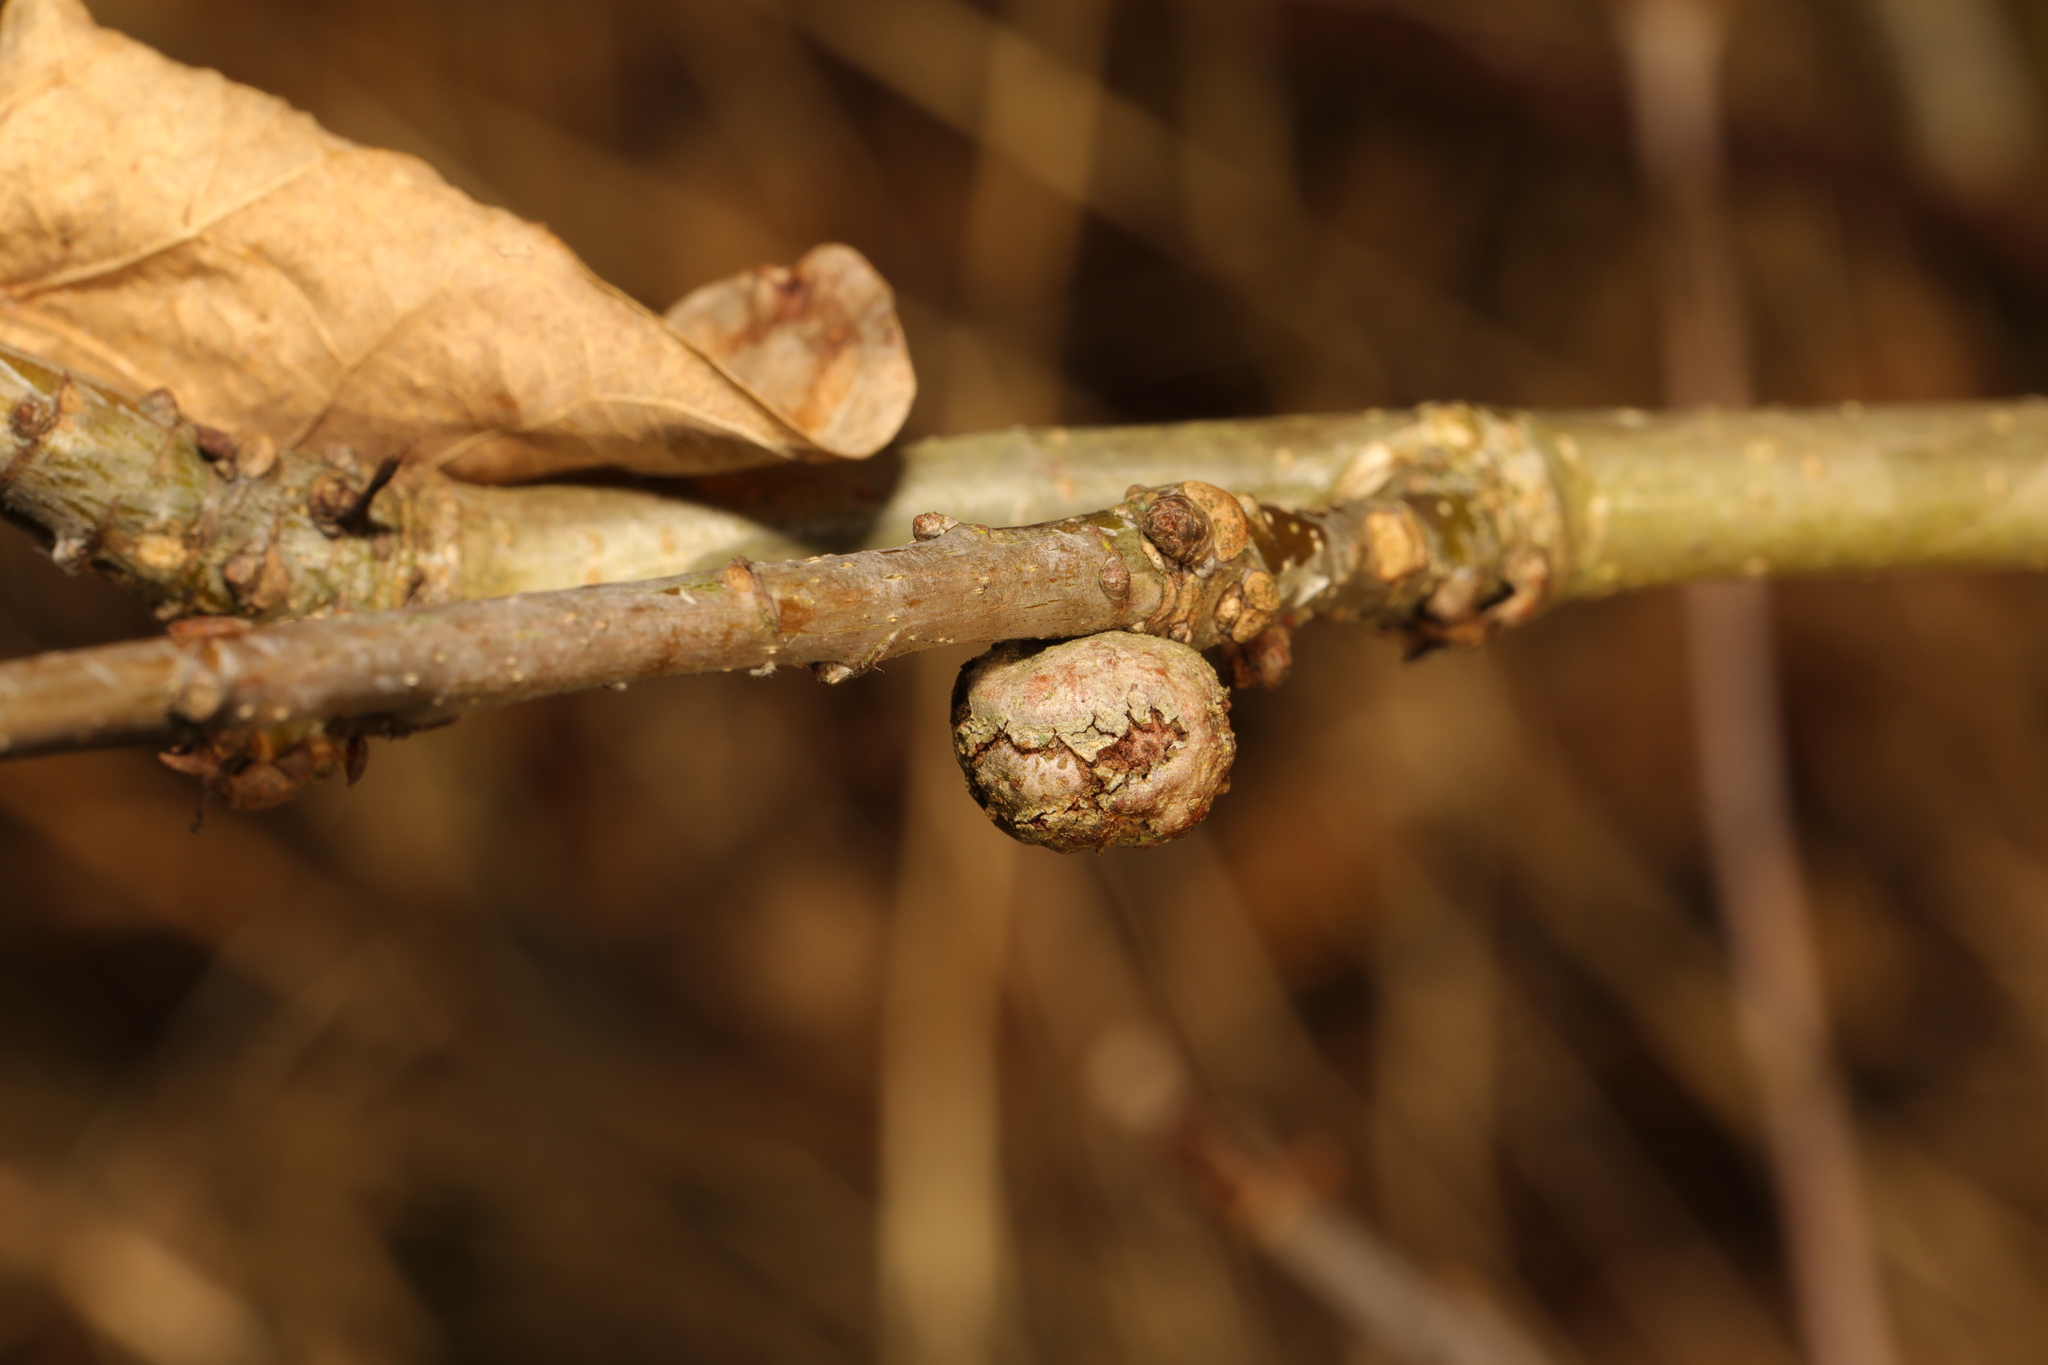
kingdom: Animalia
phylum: Arthropoda
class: Insecta
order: Hymenoptera
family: Cynipidae
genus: Andricus
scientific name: Andricus lignicolus
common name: Cola-nut gall
